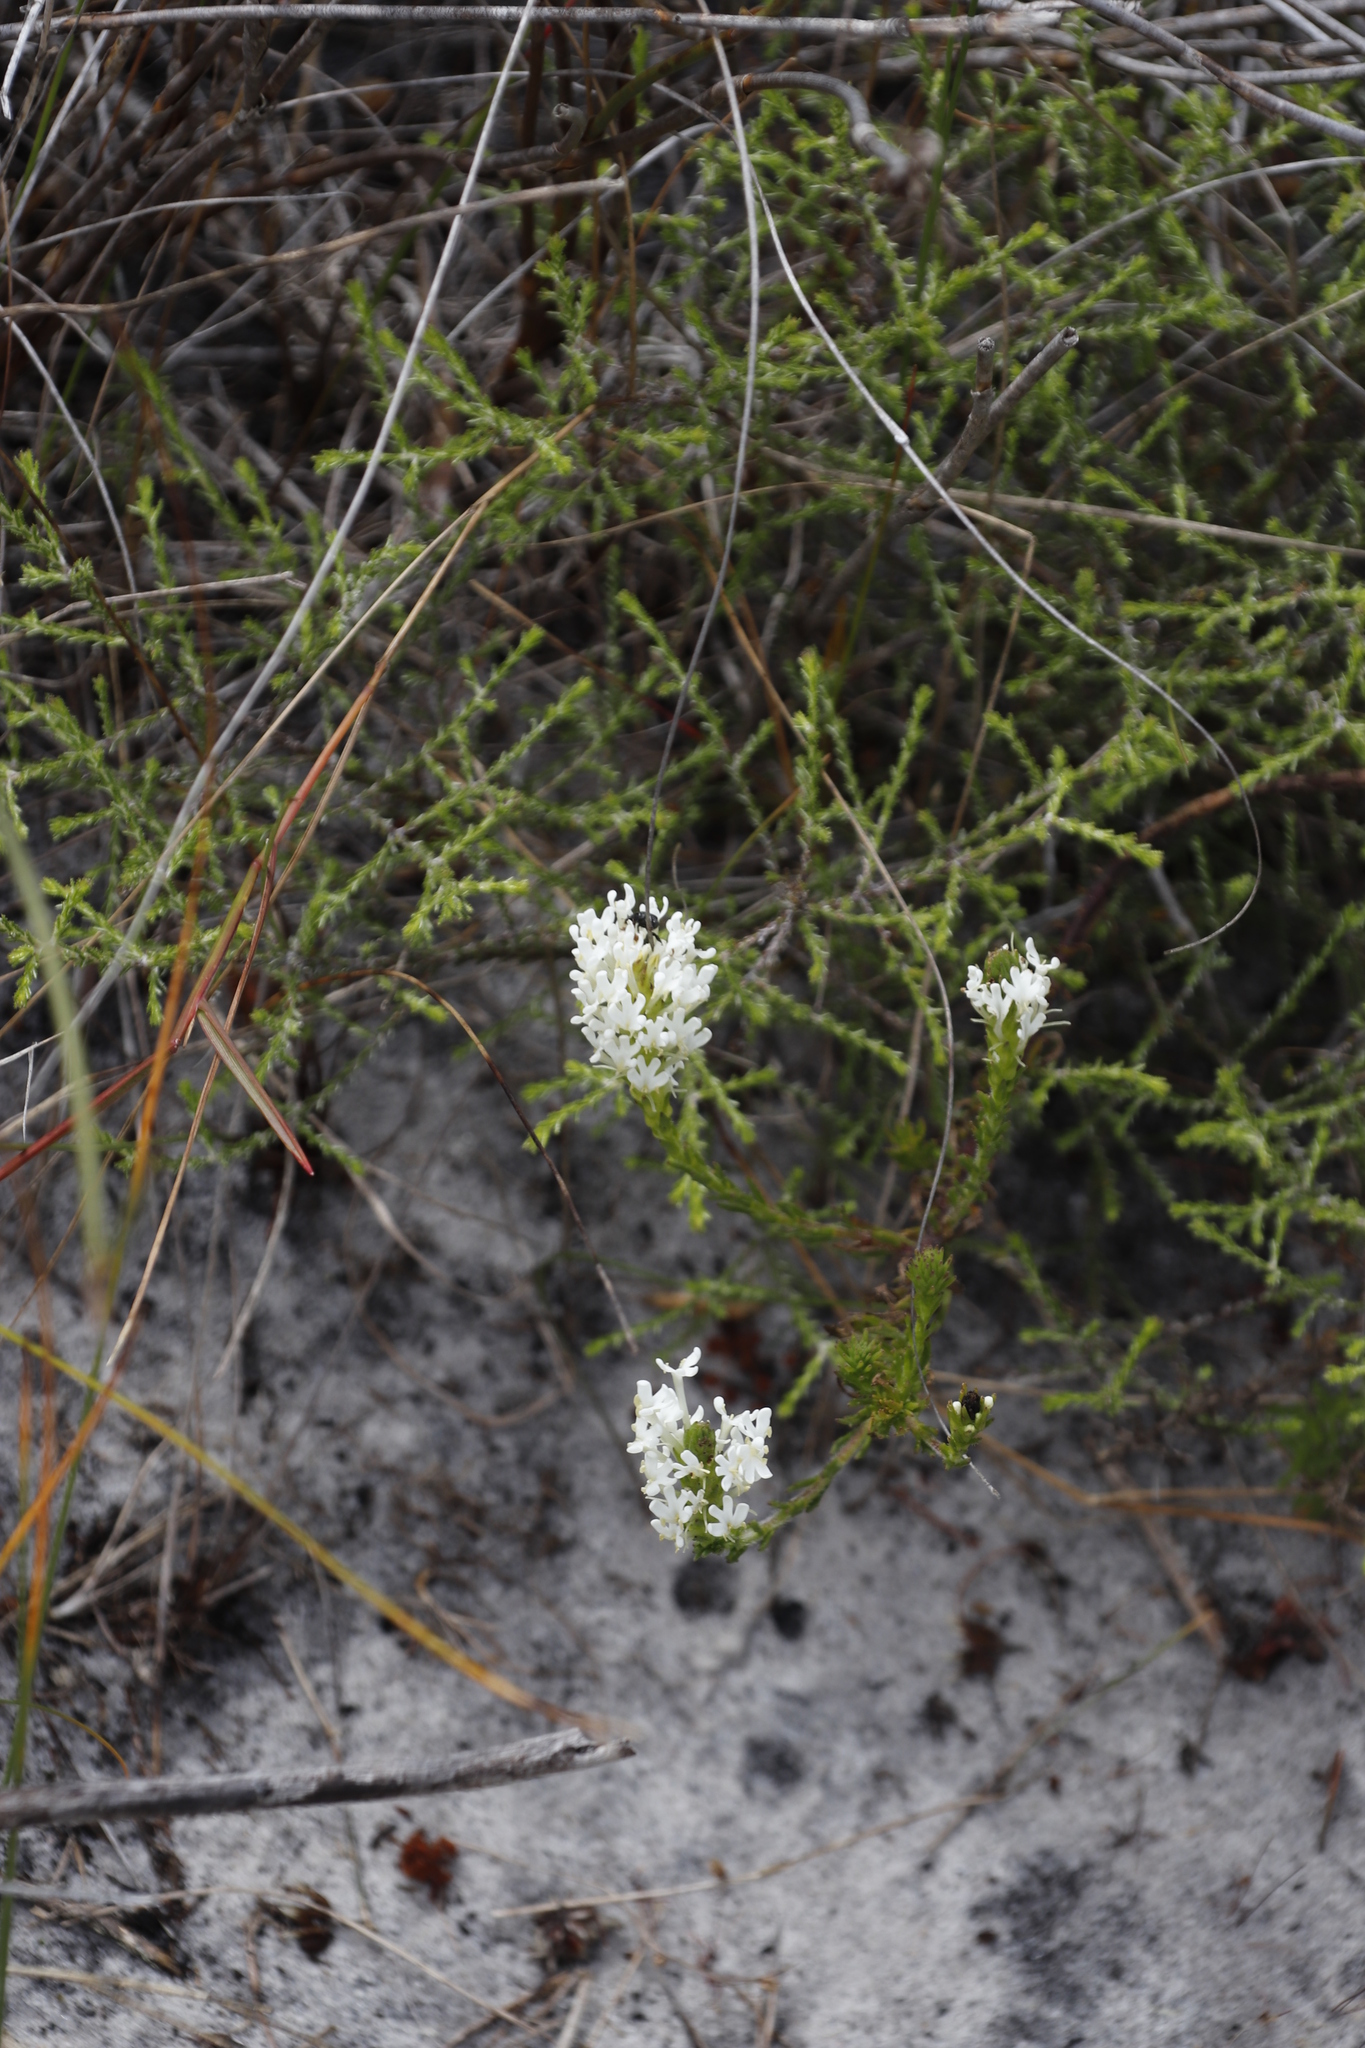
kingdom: Plantae
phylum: Tracheophyta
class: Magnoliopsida
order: Lamiales
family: Scrophulariaceae
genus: Dischisma
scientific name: Dischisma ciliatum
